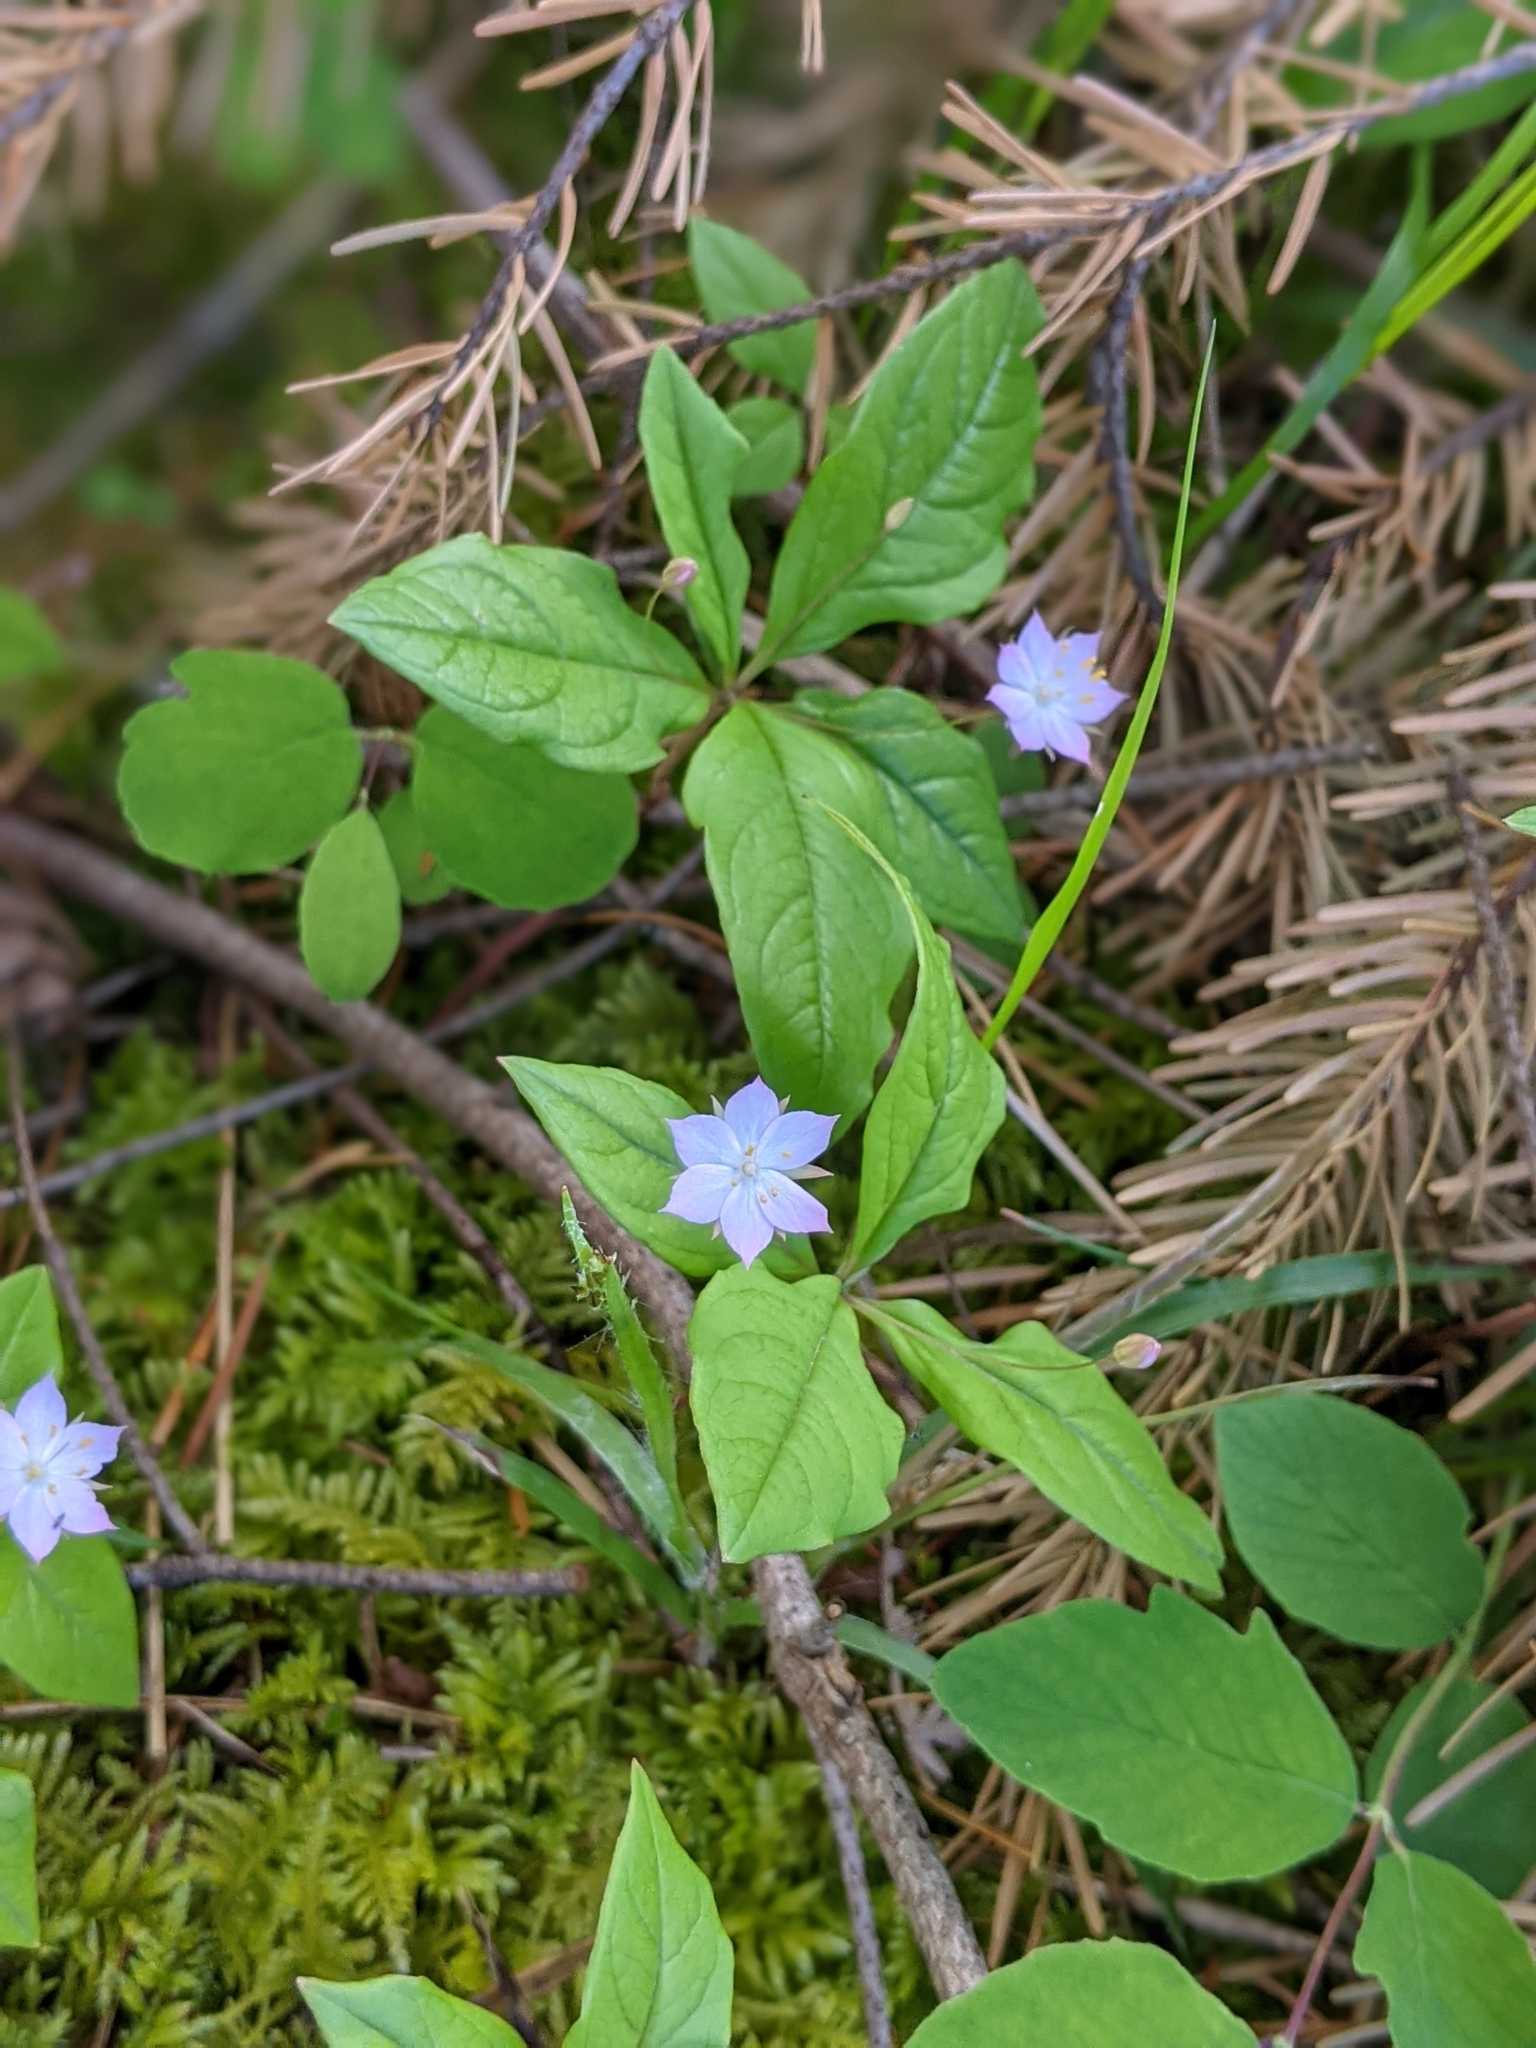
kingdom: Plantae
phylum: Tracheophyta
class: Magnoliopsida
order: Ericales
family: Primulaceae
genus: Lysimachia
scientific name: Lysimachia latifolia
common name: Pacific starflower
